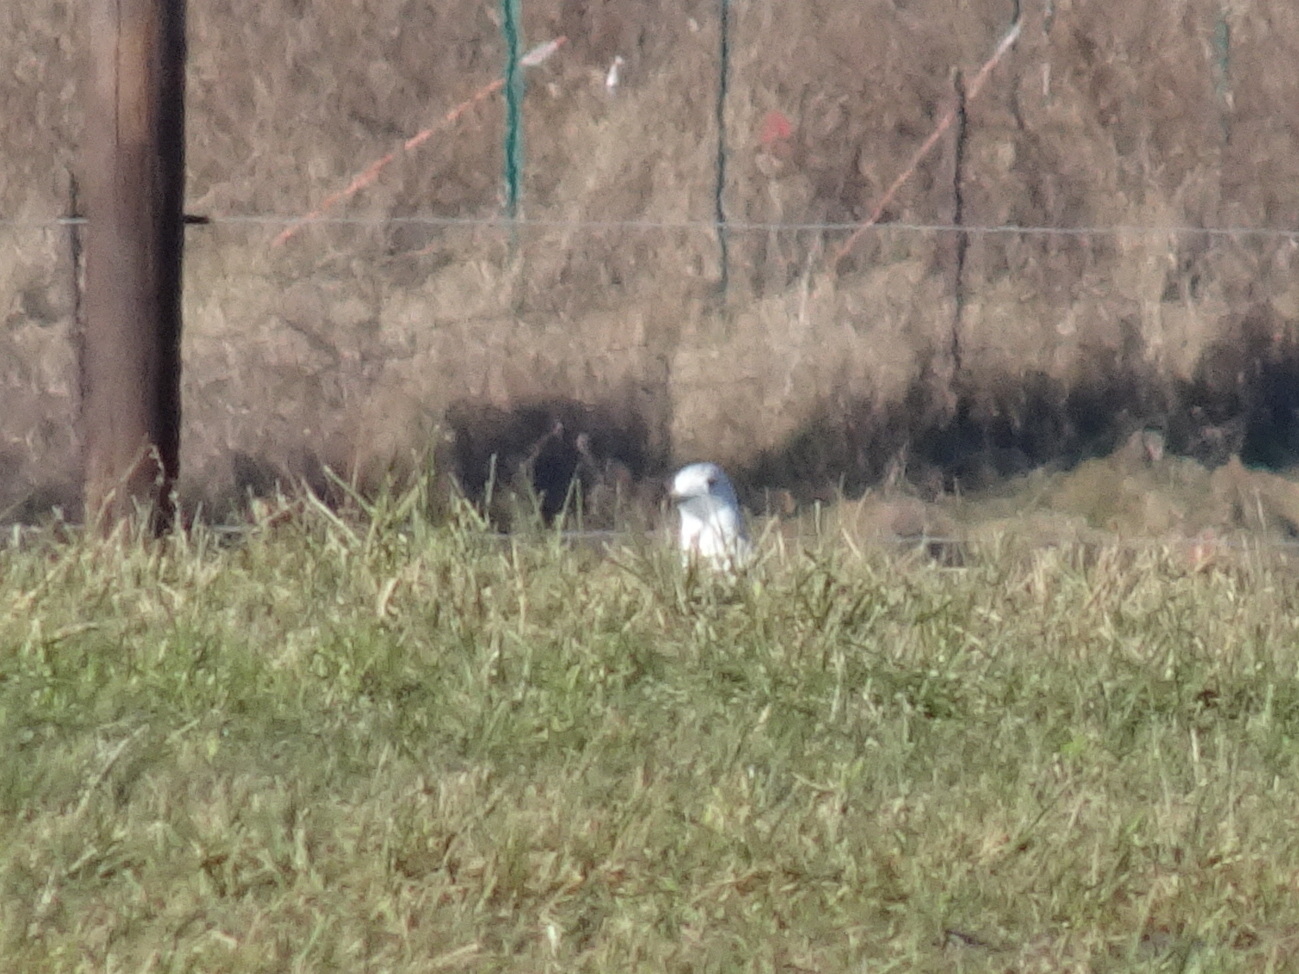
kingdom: Animalia
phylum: Chordata
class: Aves
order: Charadriiformes
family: Laridae
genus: Larus
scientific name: Larus delawarensis
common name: Ring-billed gull
